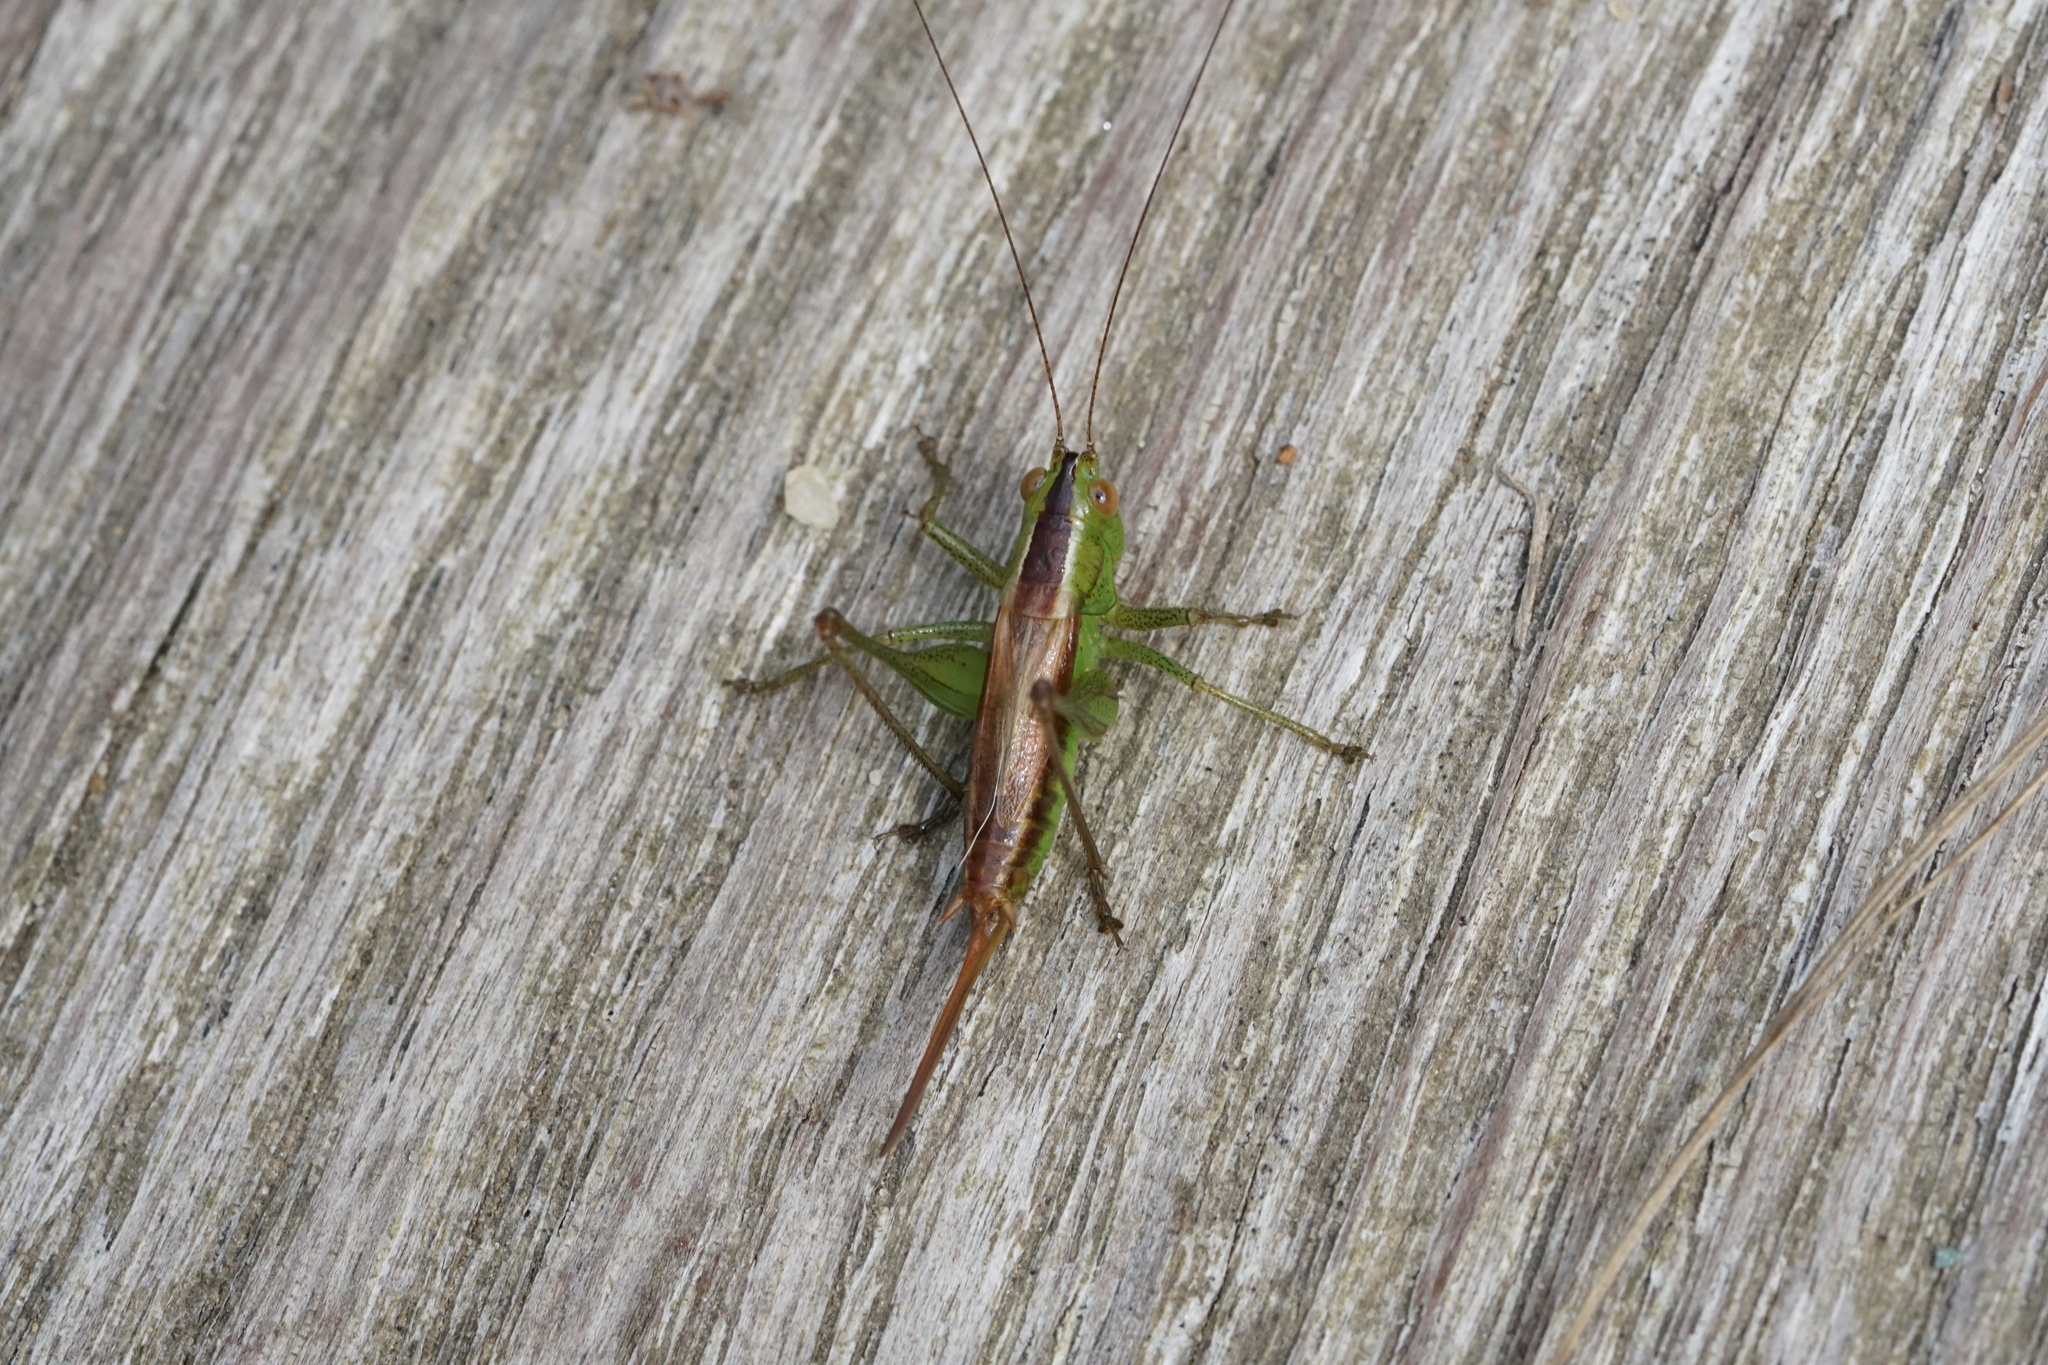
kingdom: Animalia
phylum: Arthropoda
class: Insecta
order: Orthoptera
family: Tettigoniidae
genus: Conocephalus
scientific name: Conocephalus brevipennis
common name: Short-winged meadow katydid
